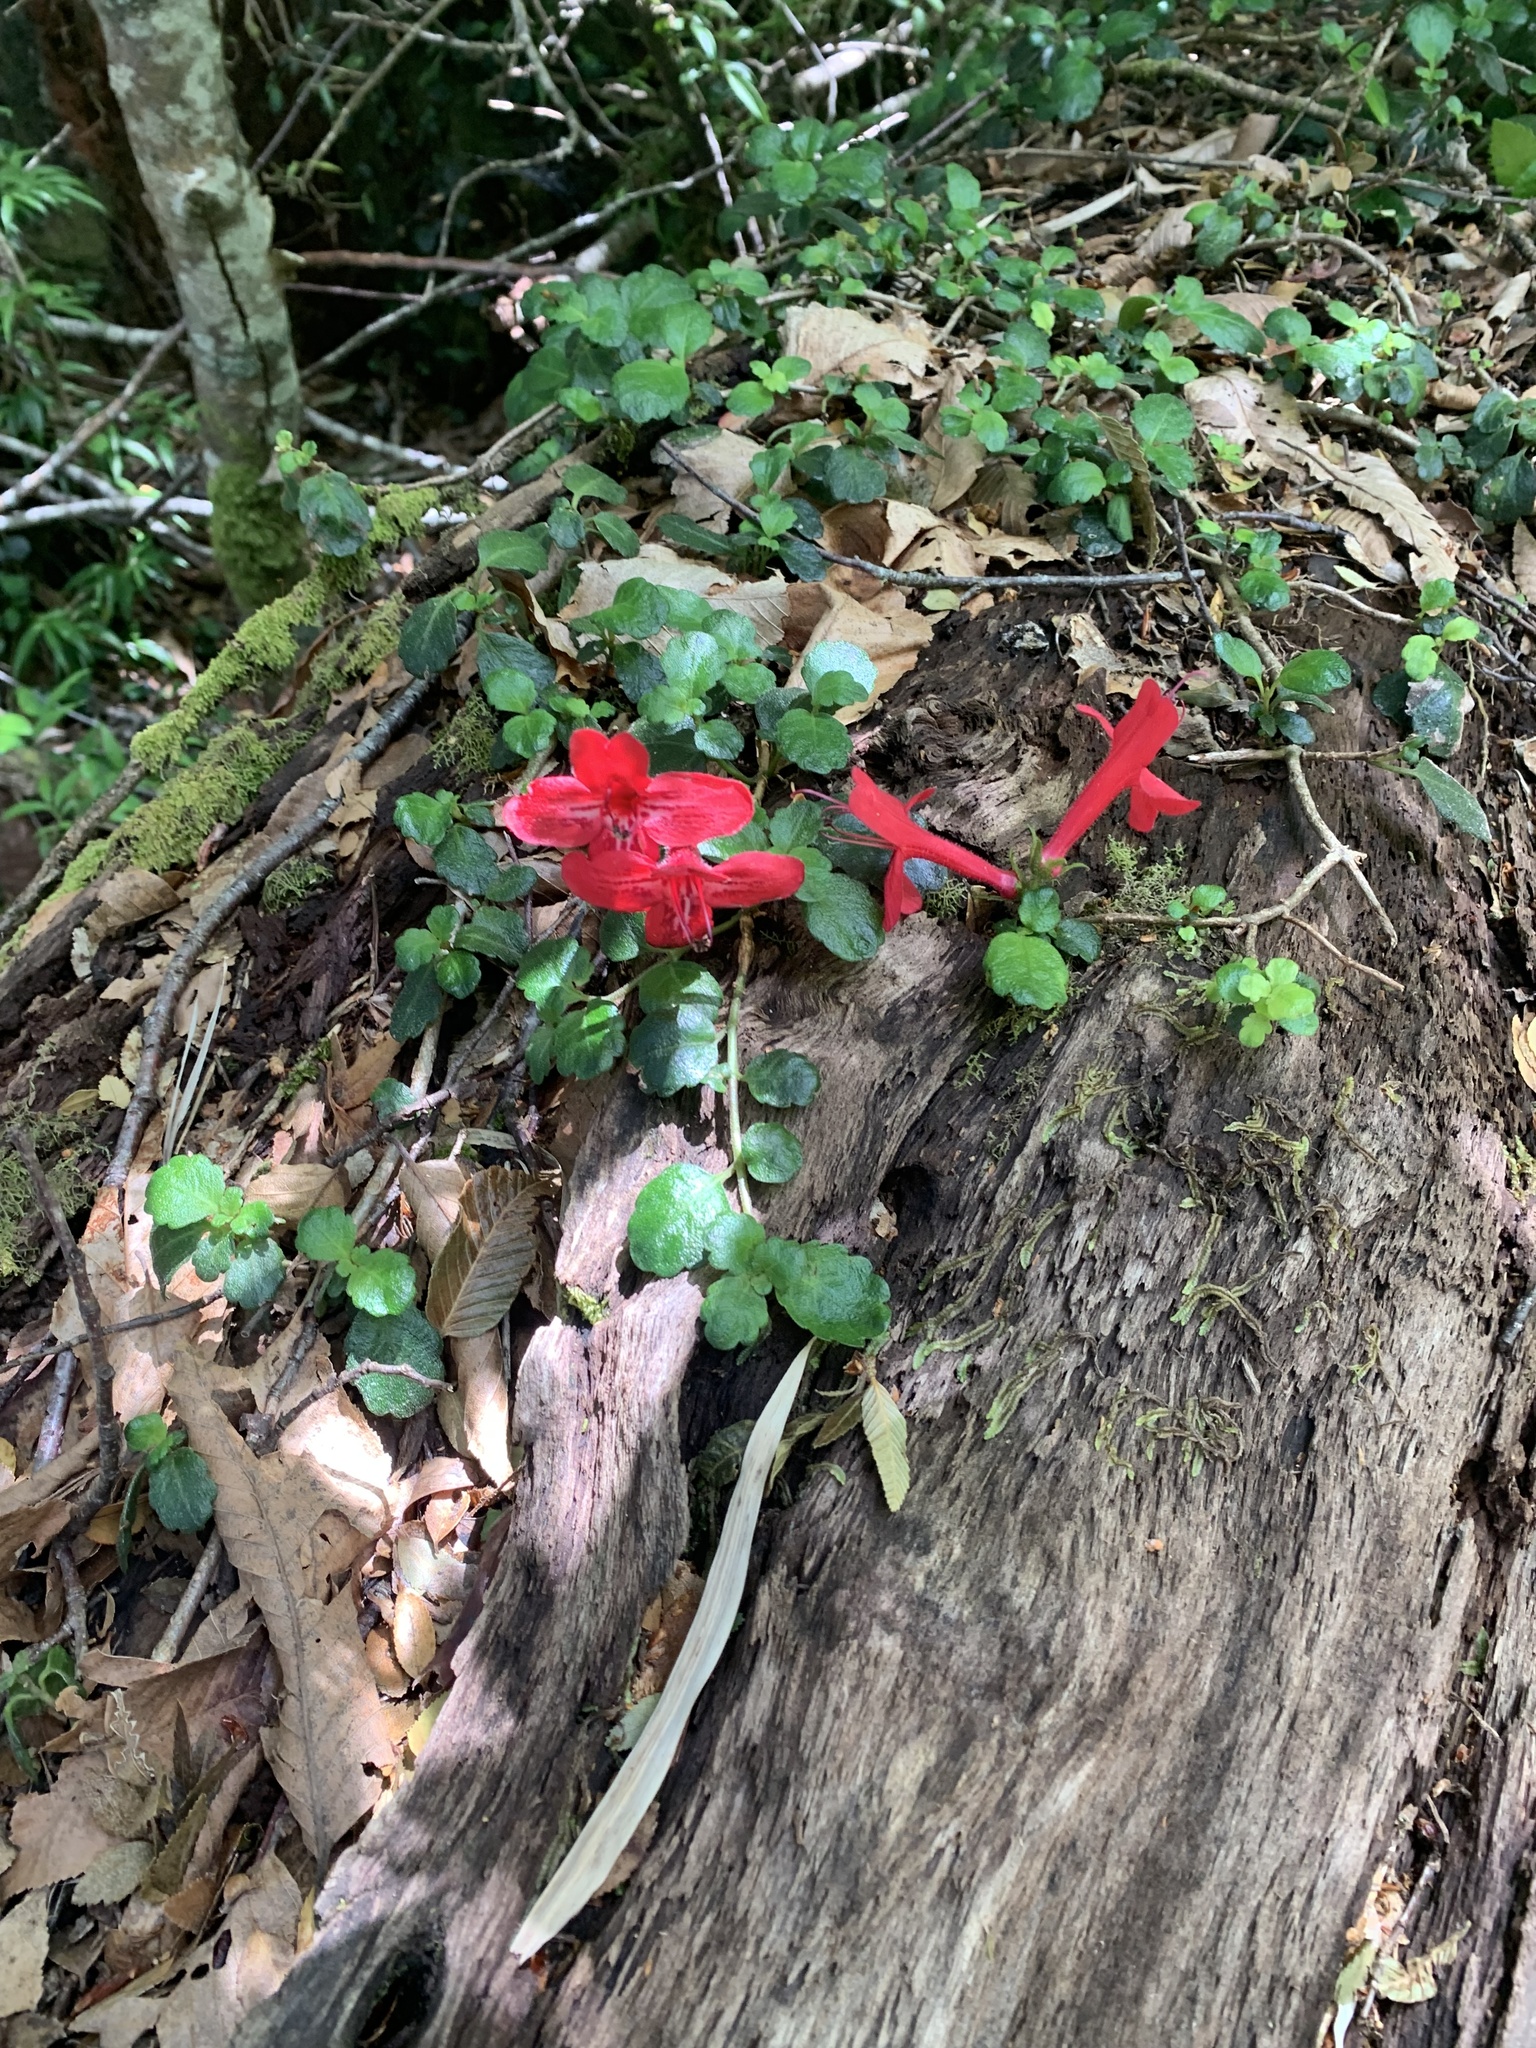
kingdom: Plantae
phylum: Tracheophyta
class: Magnoliopsida
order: Lamiales
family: Gesneriaceae
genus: Asteranthera
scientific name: Asteranthera ovata
